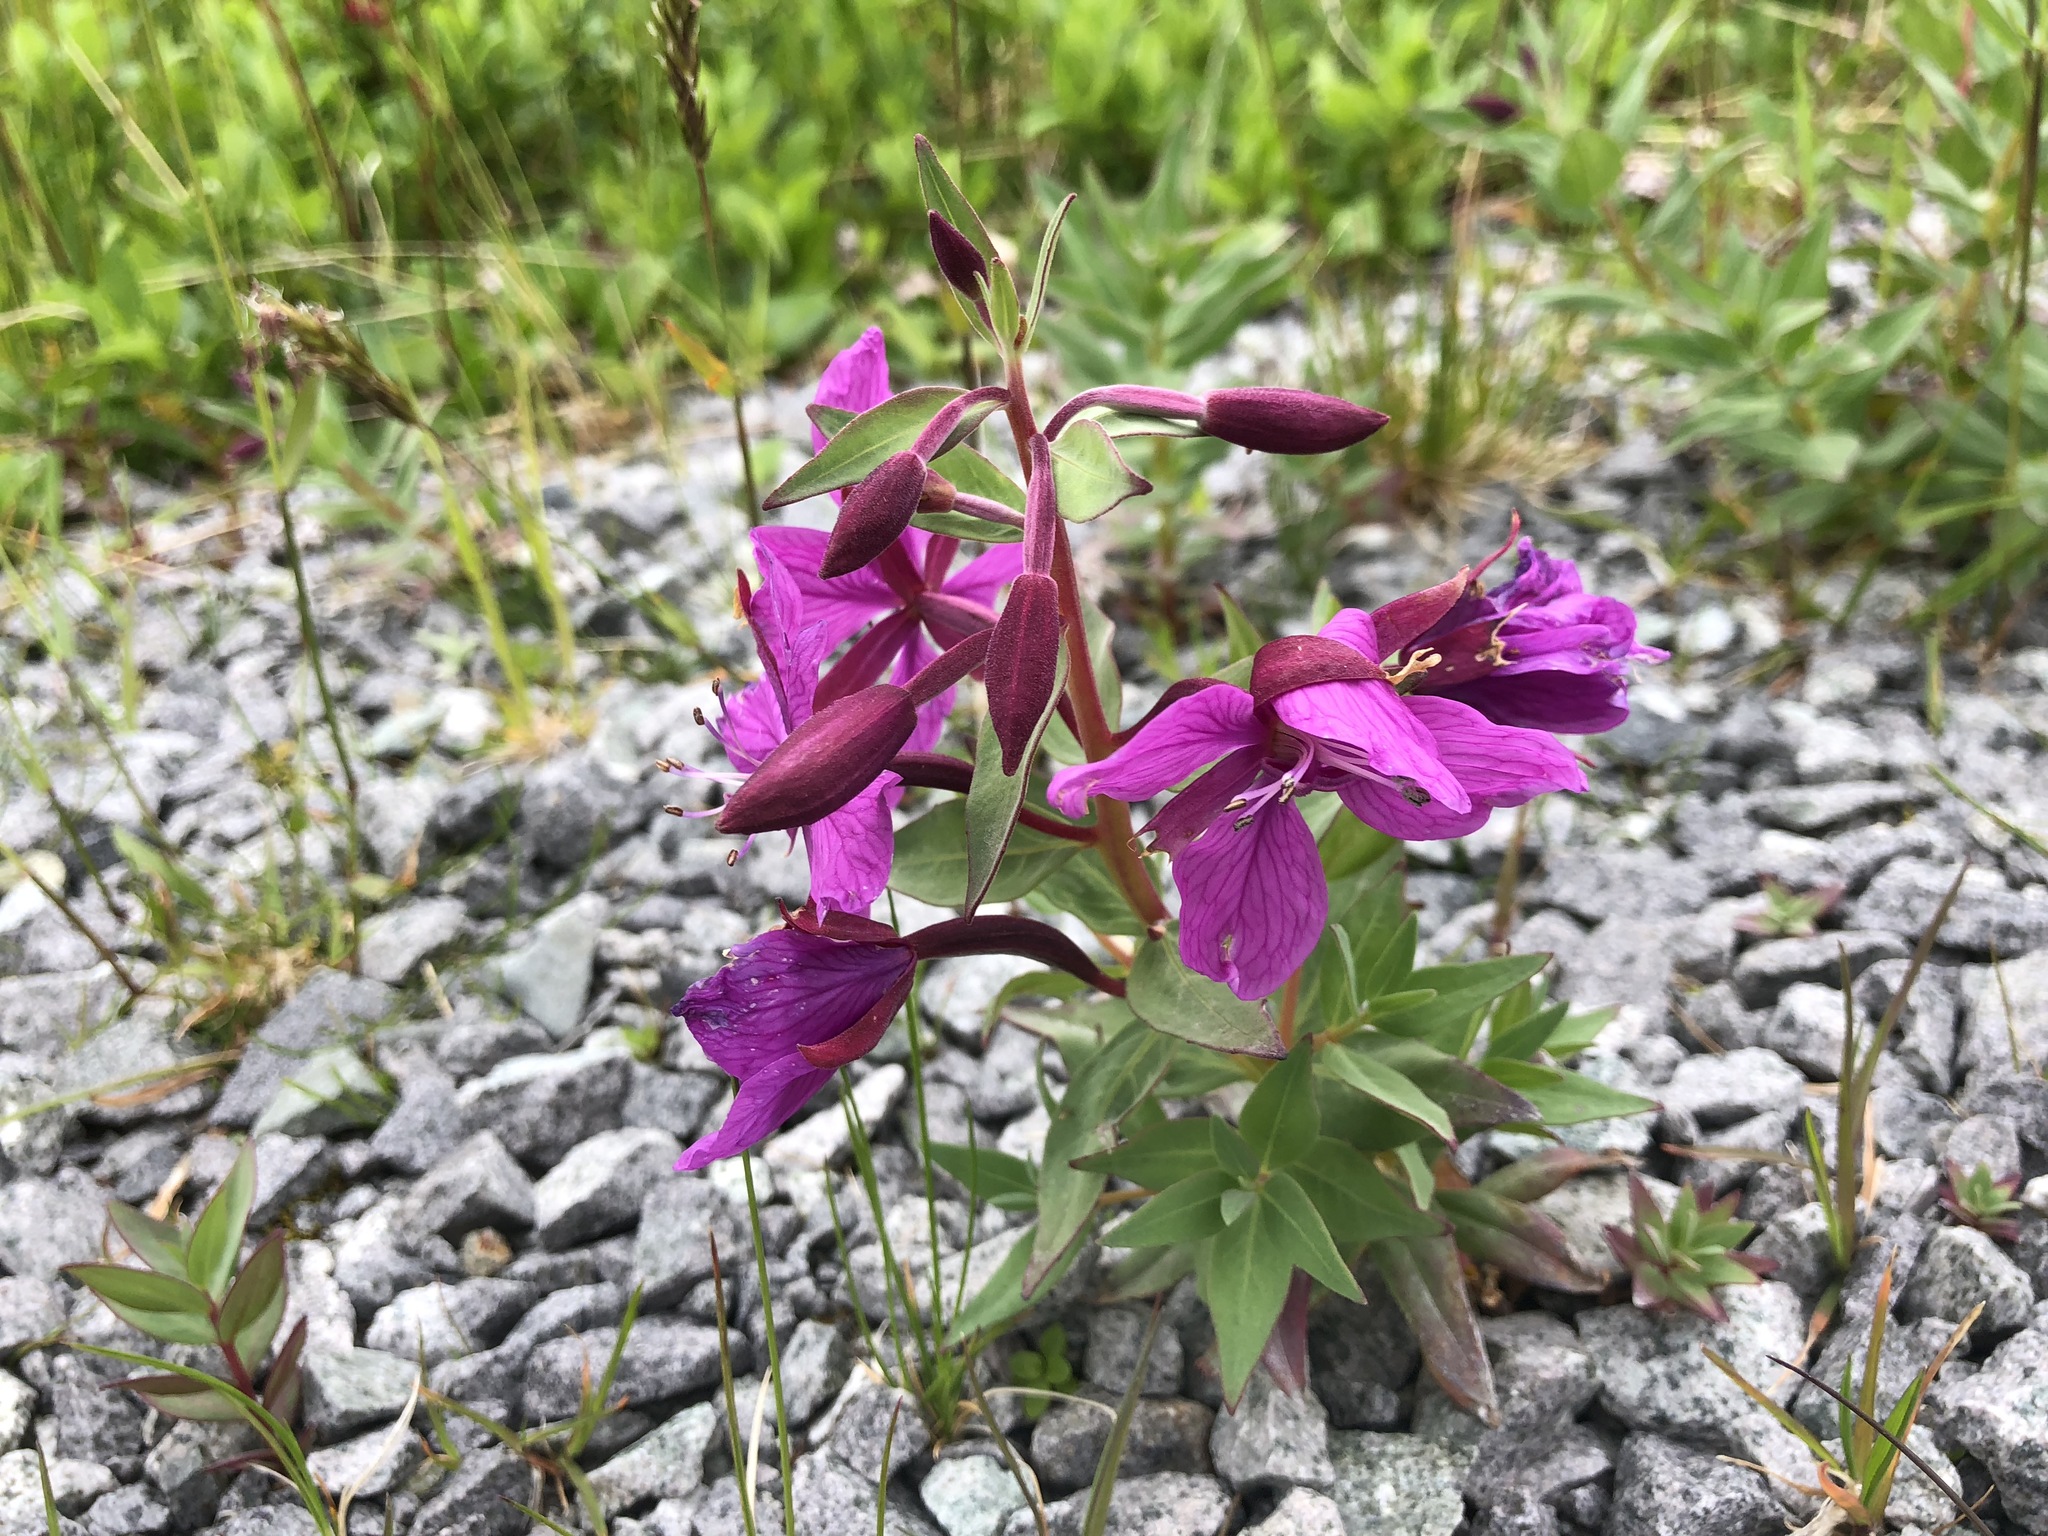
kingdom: Plantae
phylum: Tracheophyta
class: Magnoliopsida
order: Myrtales
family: Onagraceae
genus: Chamaenerion
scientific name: Chamaenerion latifolium
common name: Dwarf fireweed
